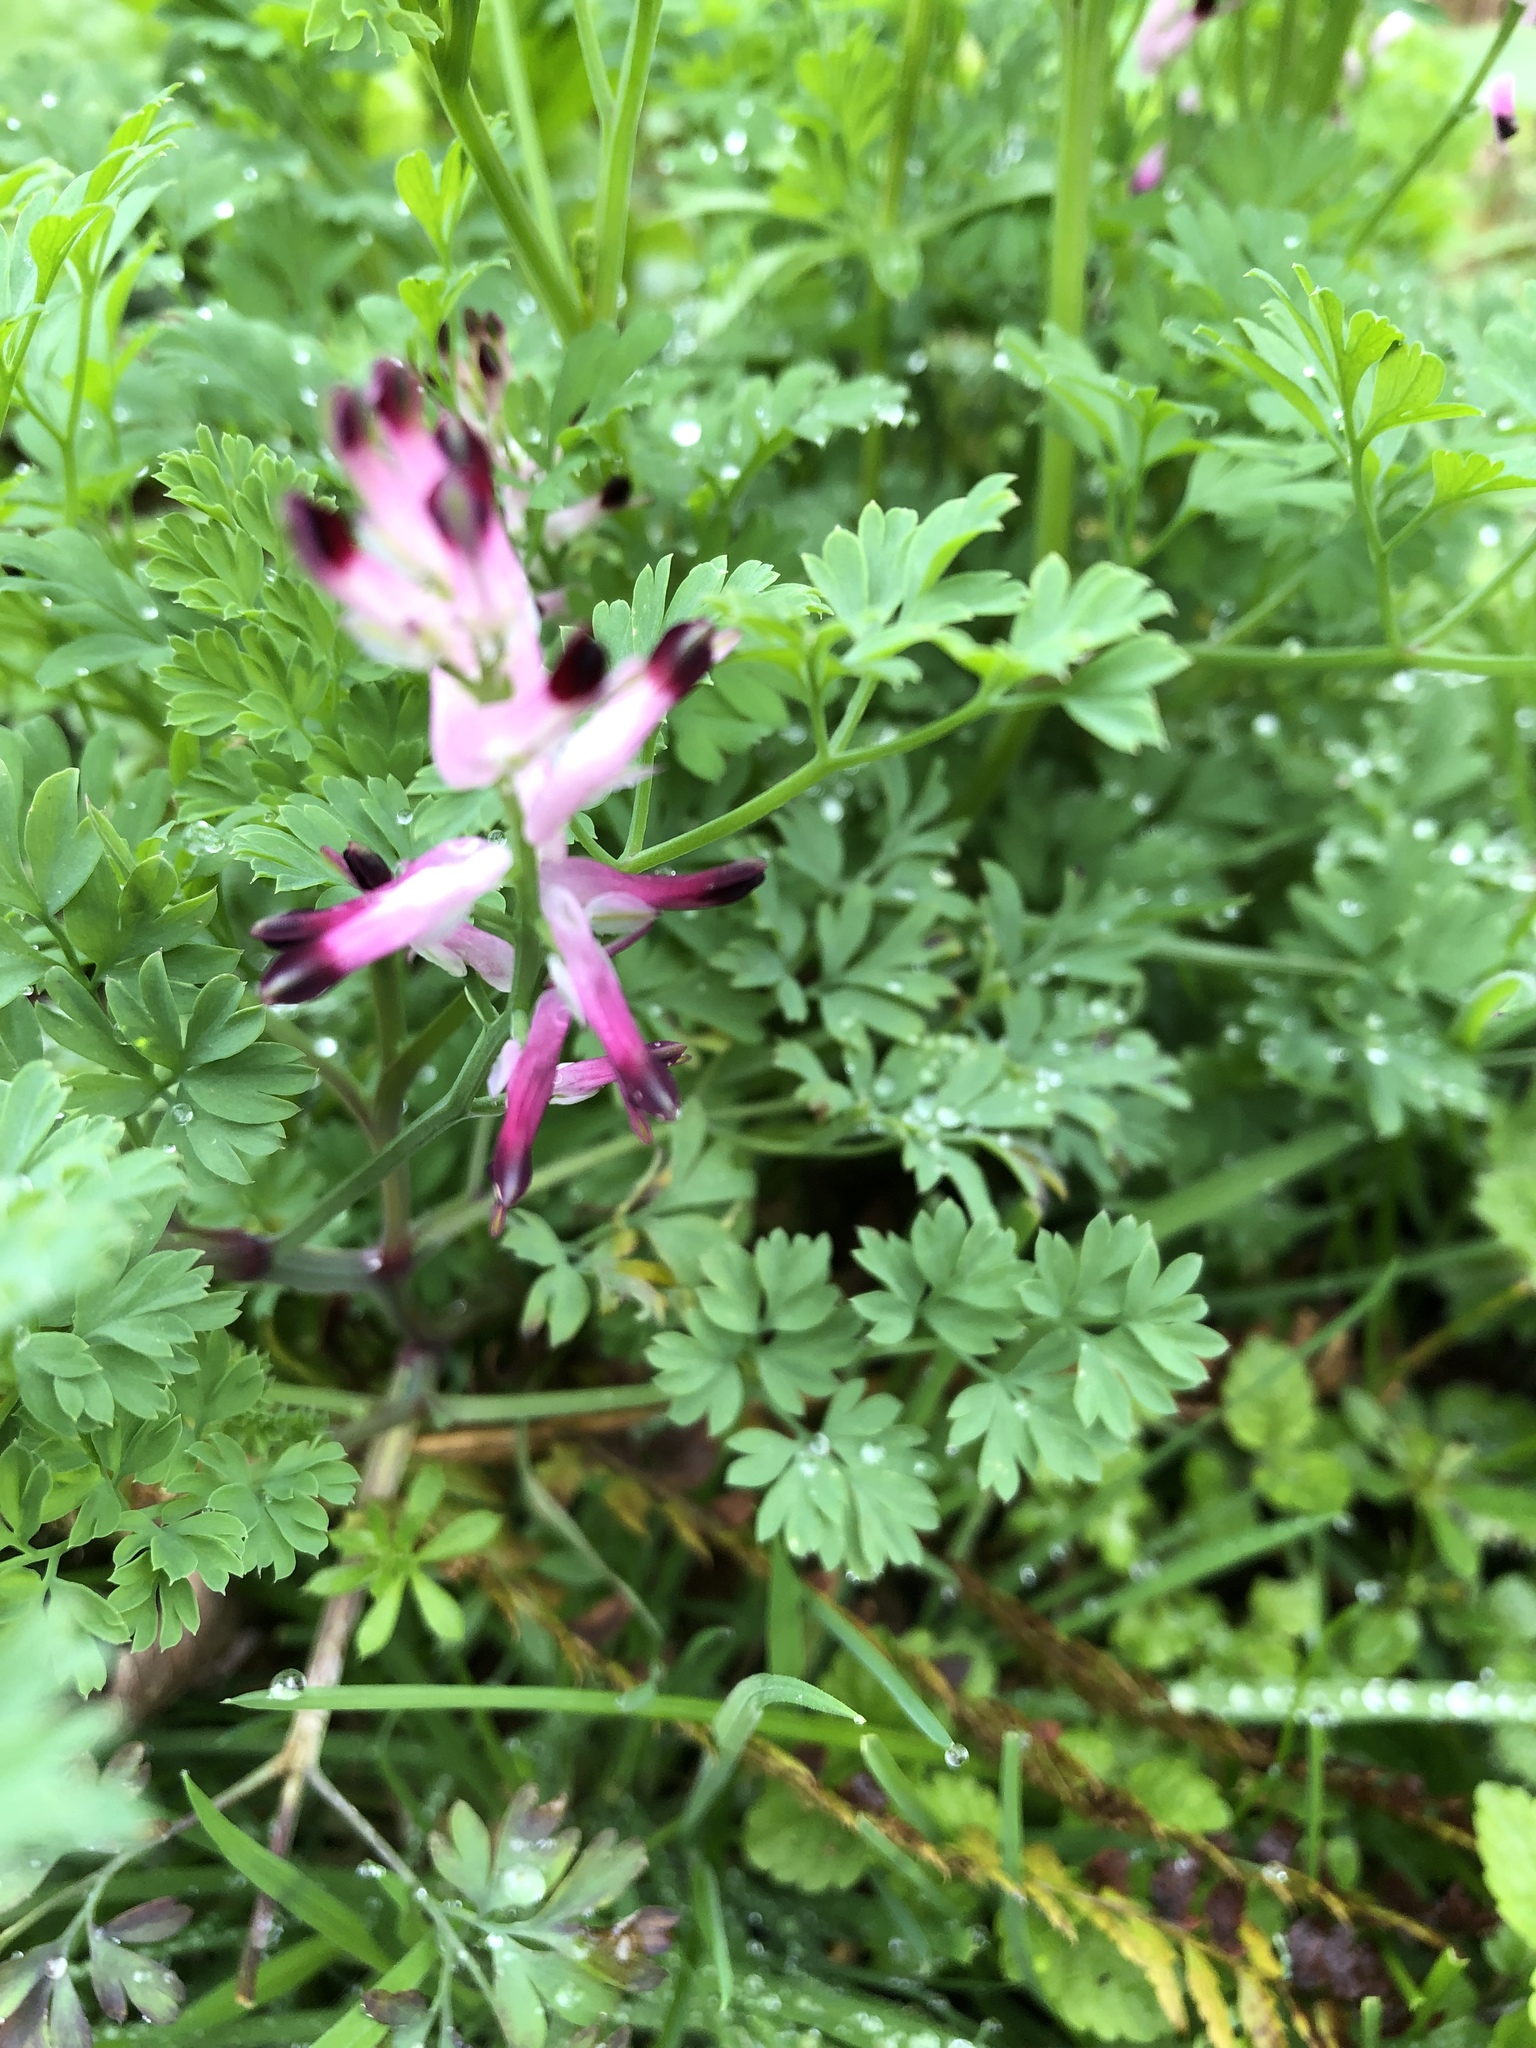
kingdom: Plantae
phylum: Tracheophyta
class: Magnoliopsida
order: Ranunculales
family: Papaveraceae
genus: Fumaria
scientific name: Fumaria muralis
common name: Common ramping-fumitory
